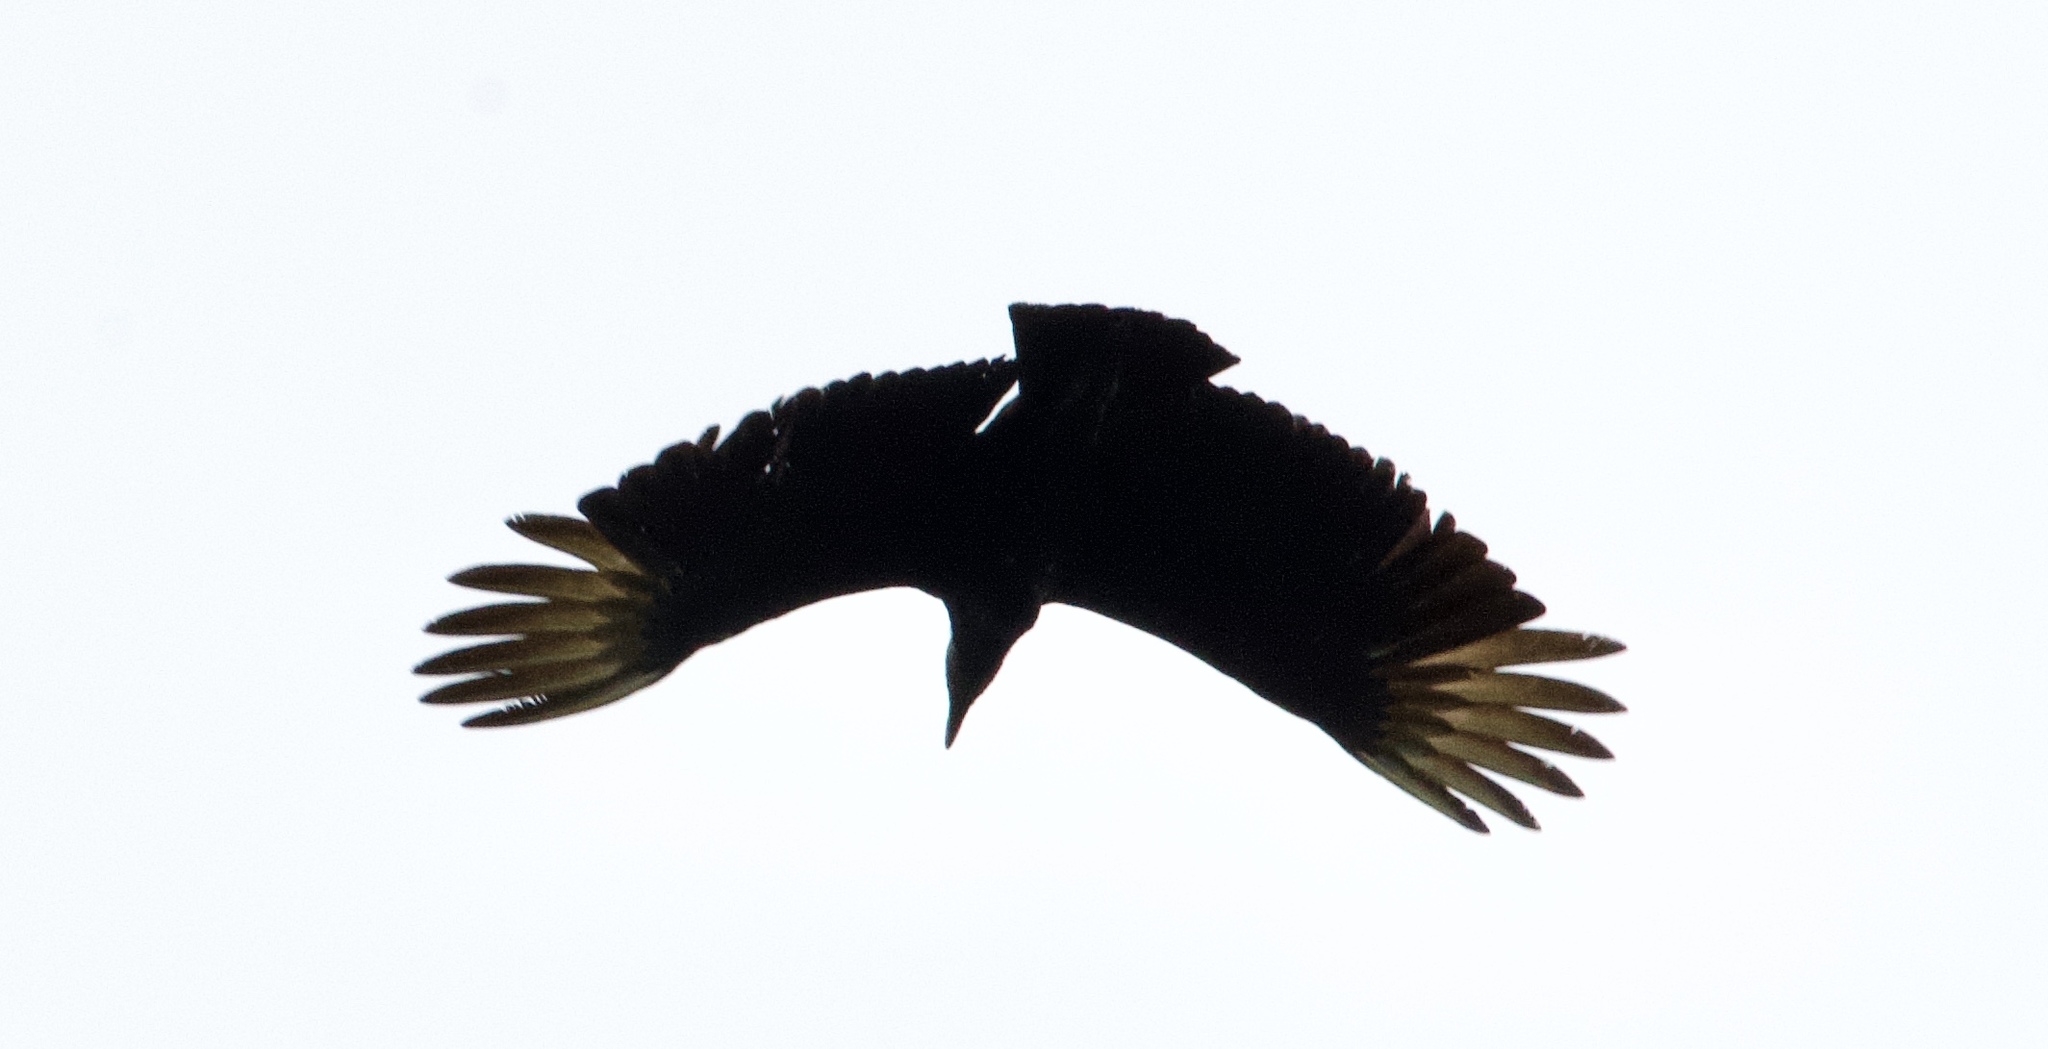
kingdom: Animalia
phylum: Chordata
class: Aves
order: Accipitriformes
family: Cathartidae
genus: Coragyps
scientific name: Coragyps atratus
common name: Black vulture
